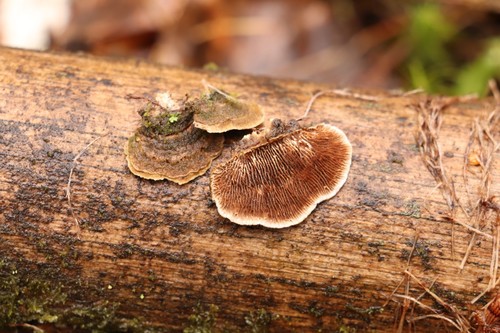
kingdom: Fungi
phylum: Basidiomycota
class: Agaricomycetes
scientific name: Agaricomycetes
